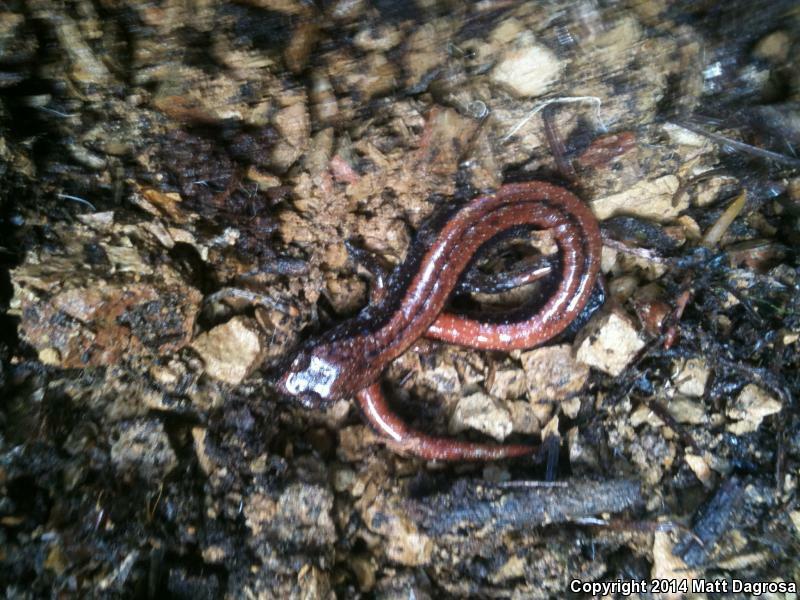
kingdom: Animalia
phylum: Chordata
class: Amphibia
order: Caudata
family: Plethodontidae
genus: Plethodon
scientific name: Plethodon vehiculum
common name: Western red-backed salamander
